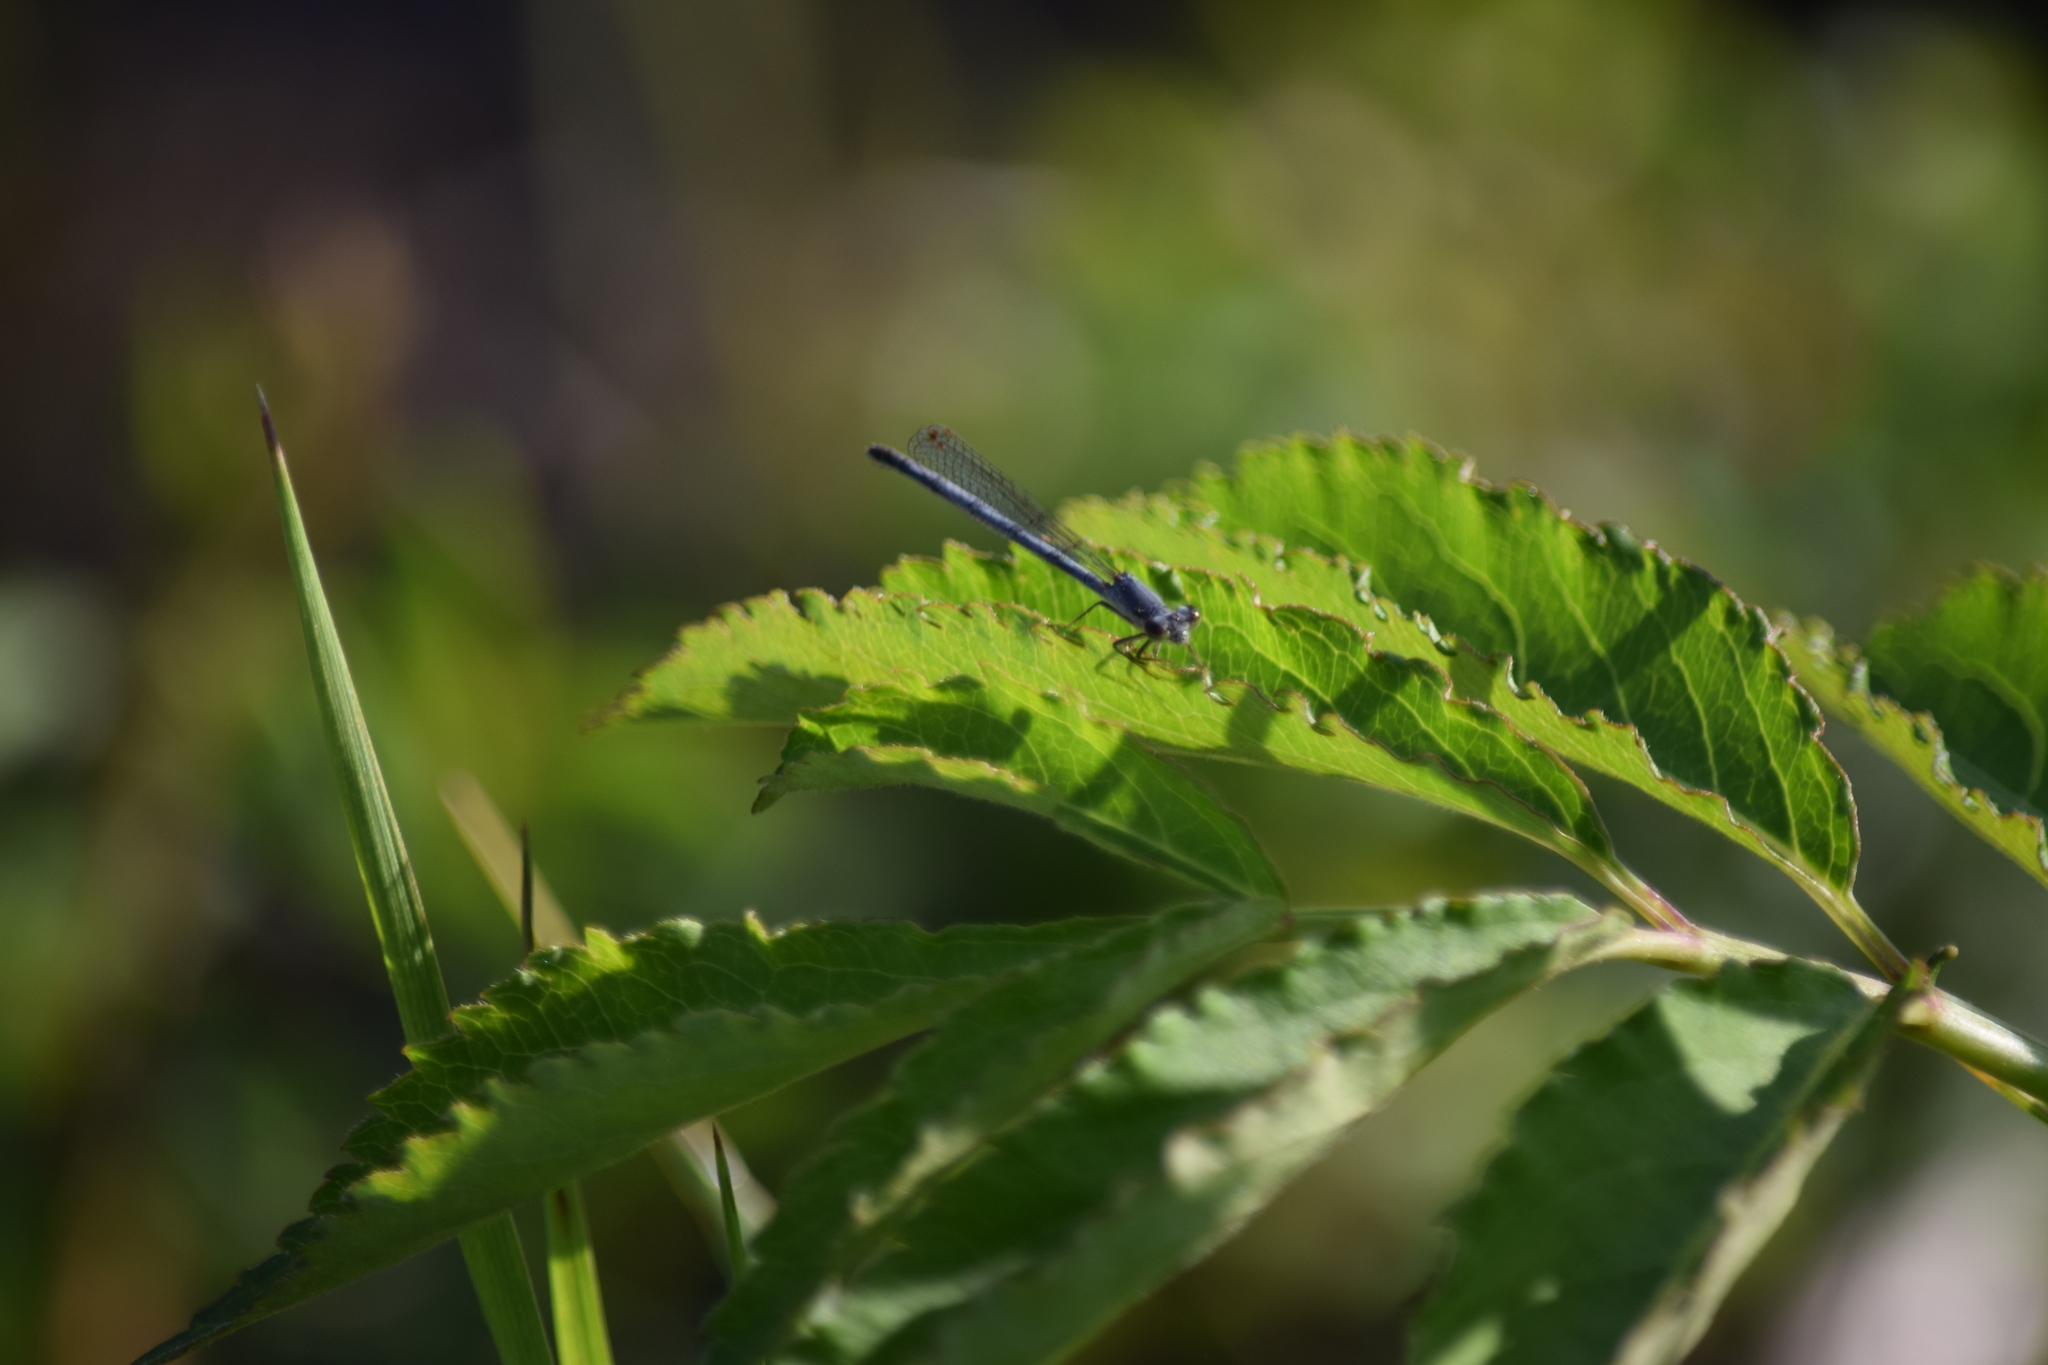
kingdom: Animalia
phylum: Arthropoda
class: Insecta
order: Odonata
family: Coenagrionidae
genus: Ischnura
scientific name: Ischnura posita
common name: Fragile forktail
